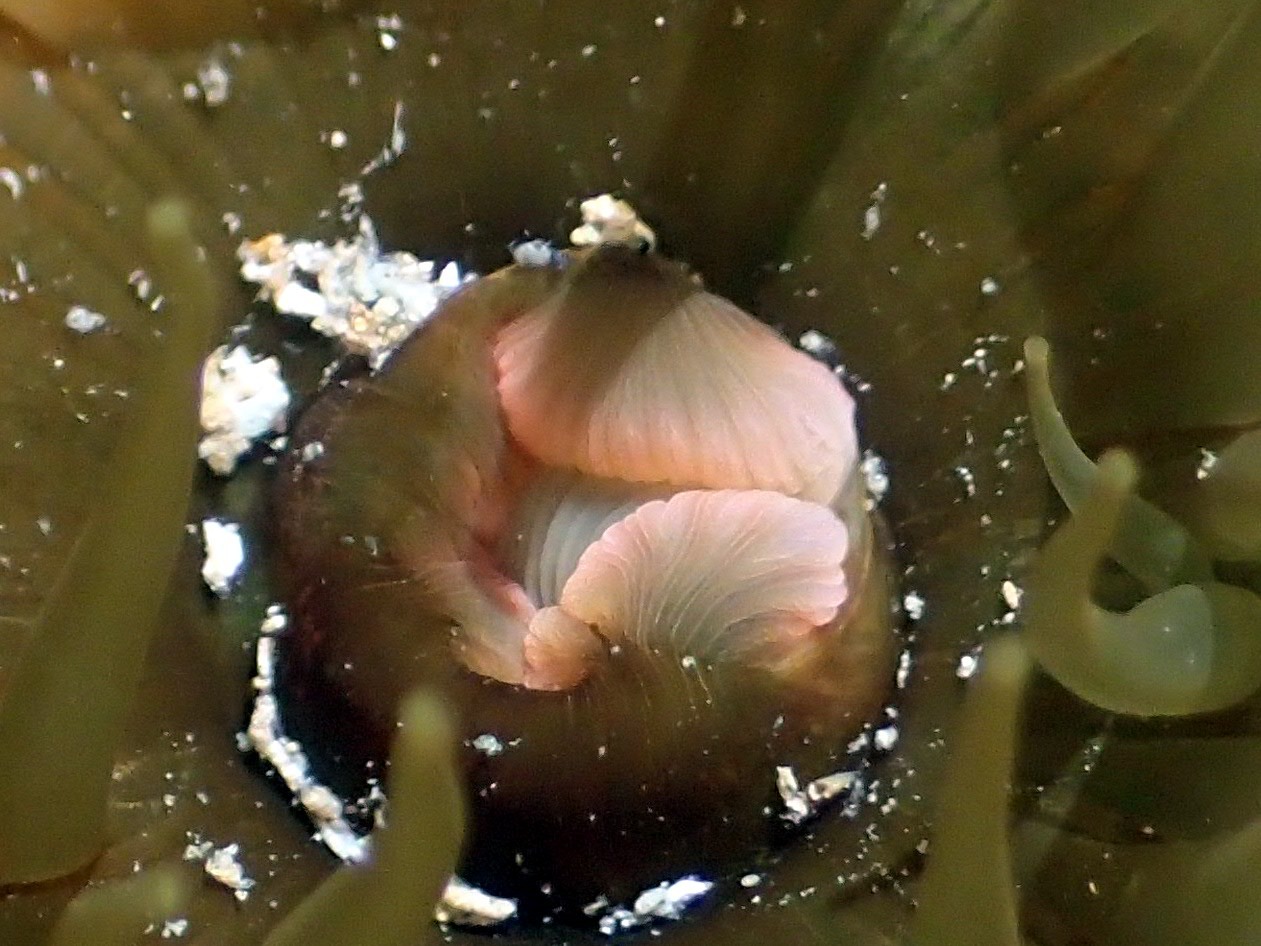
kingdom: Animalia
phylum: Cnidaria
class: Anthozoa
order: Actiniaria
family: Actiniidae
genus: Isactinia
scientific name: Isactinia olivacea
